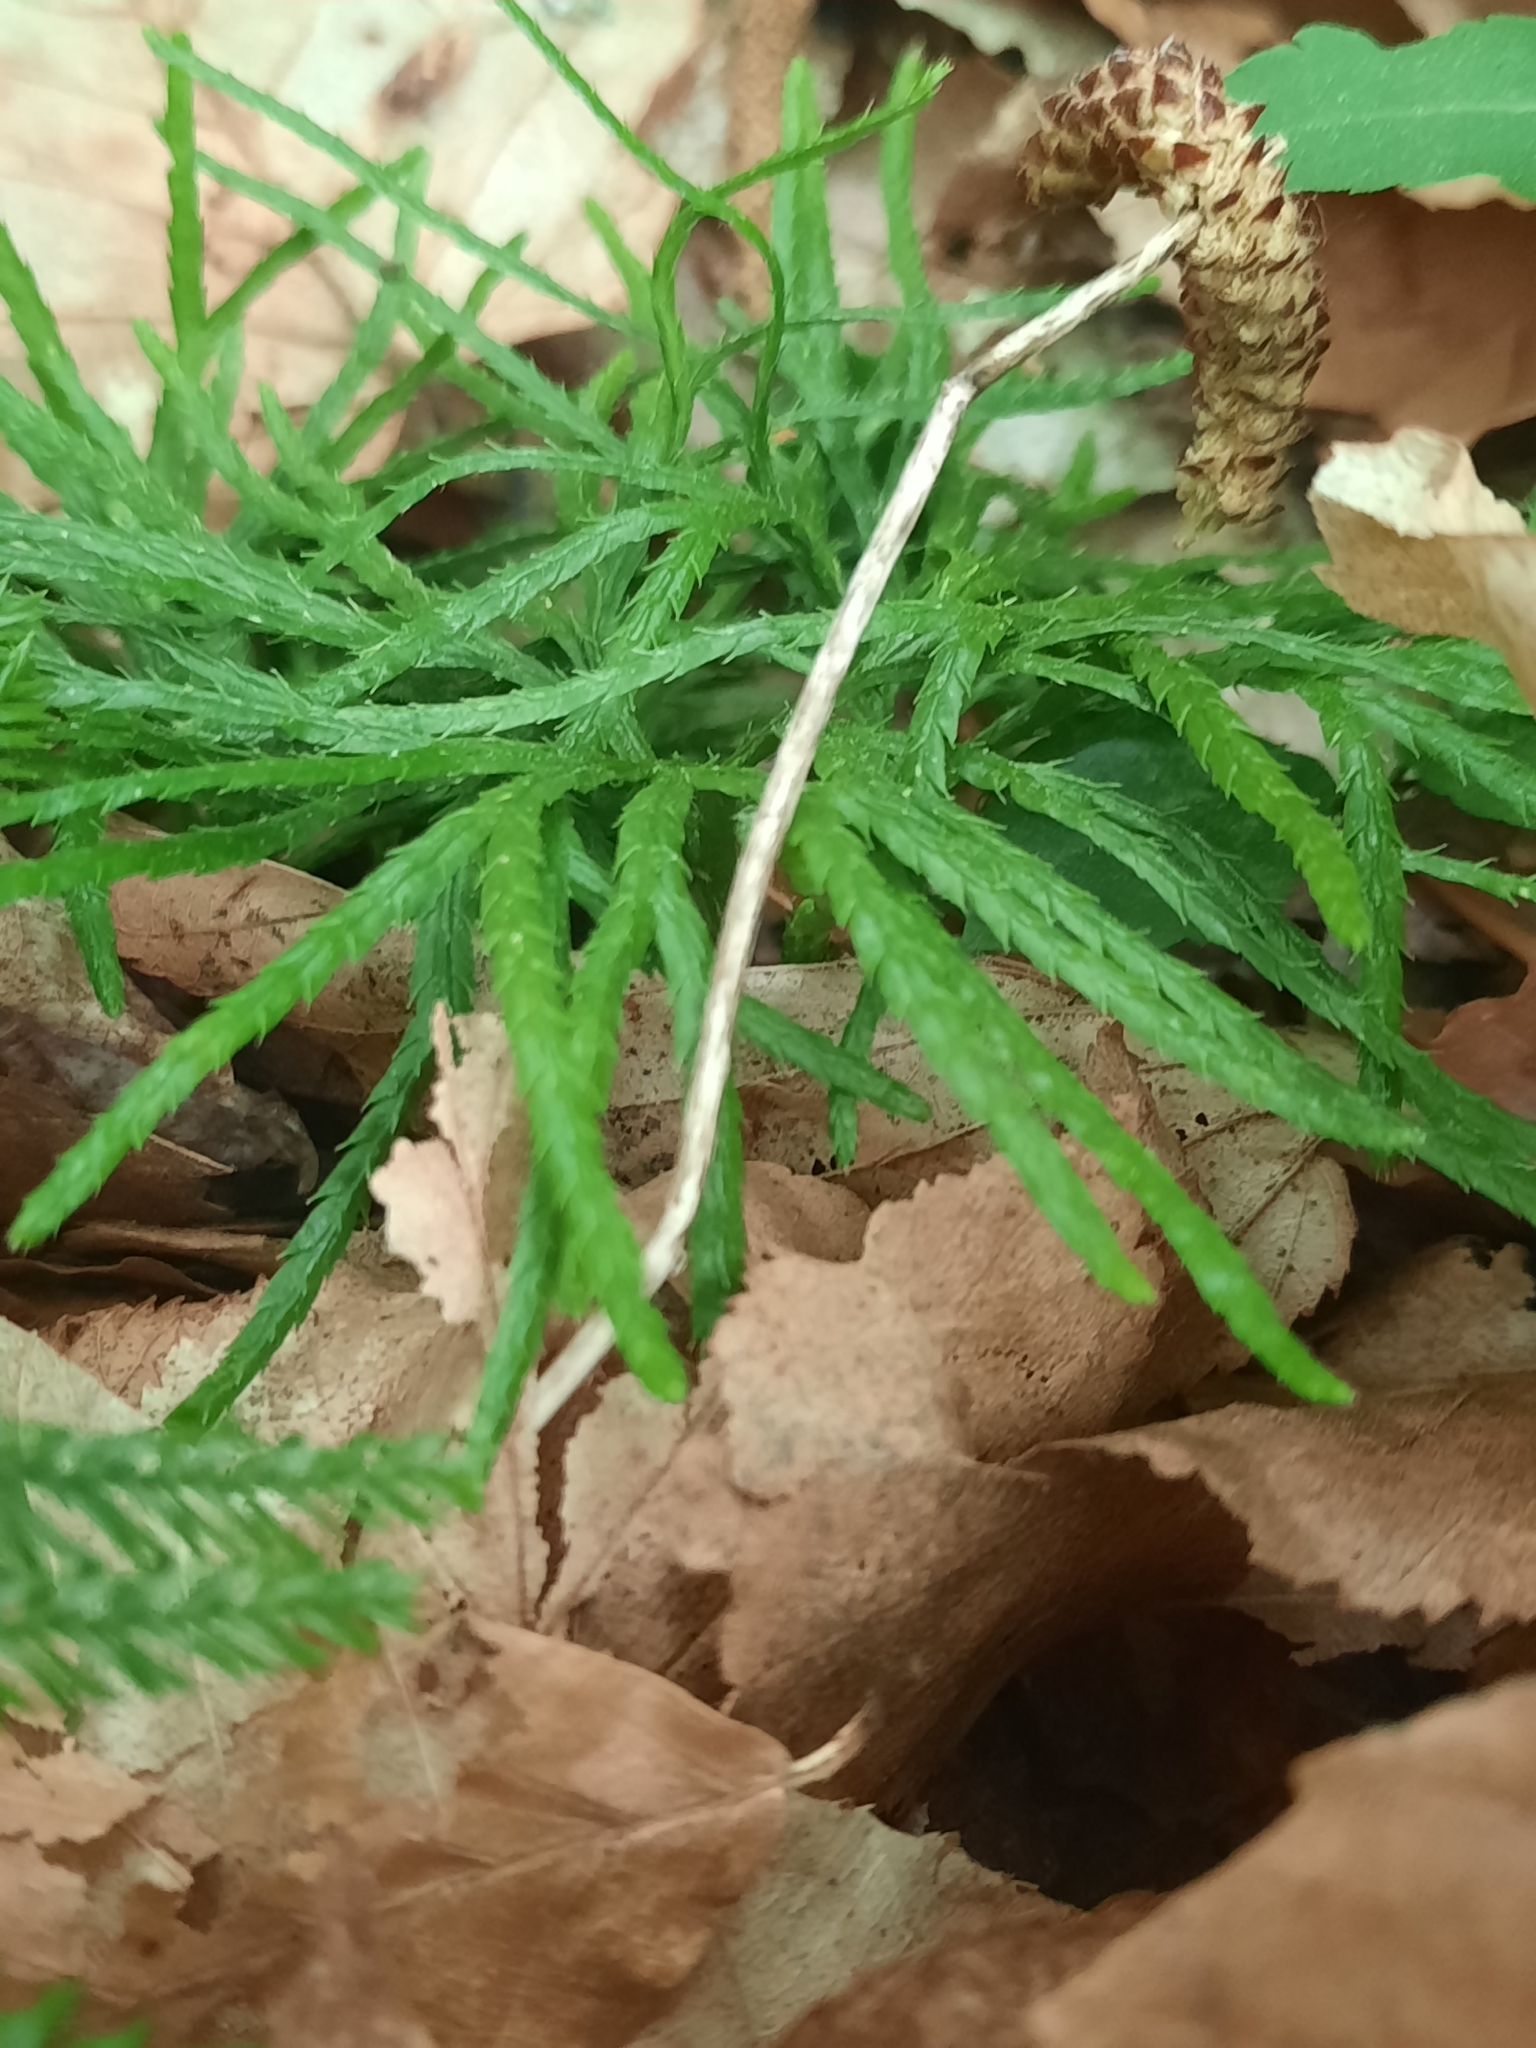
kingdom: Plantae
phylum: Tracheophyta
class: Lycopodiopsida
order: Lycopodiales
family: Lycopodiaceae
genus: Diphasiastrum
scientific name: Diphasiastrum digitatum
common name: Southern running-pine
